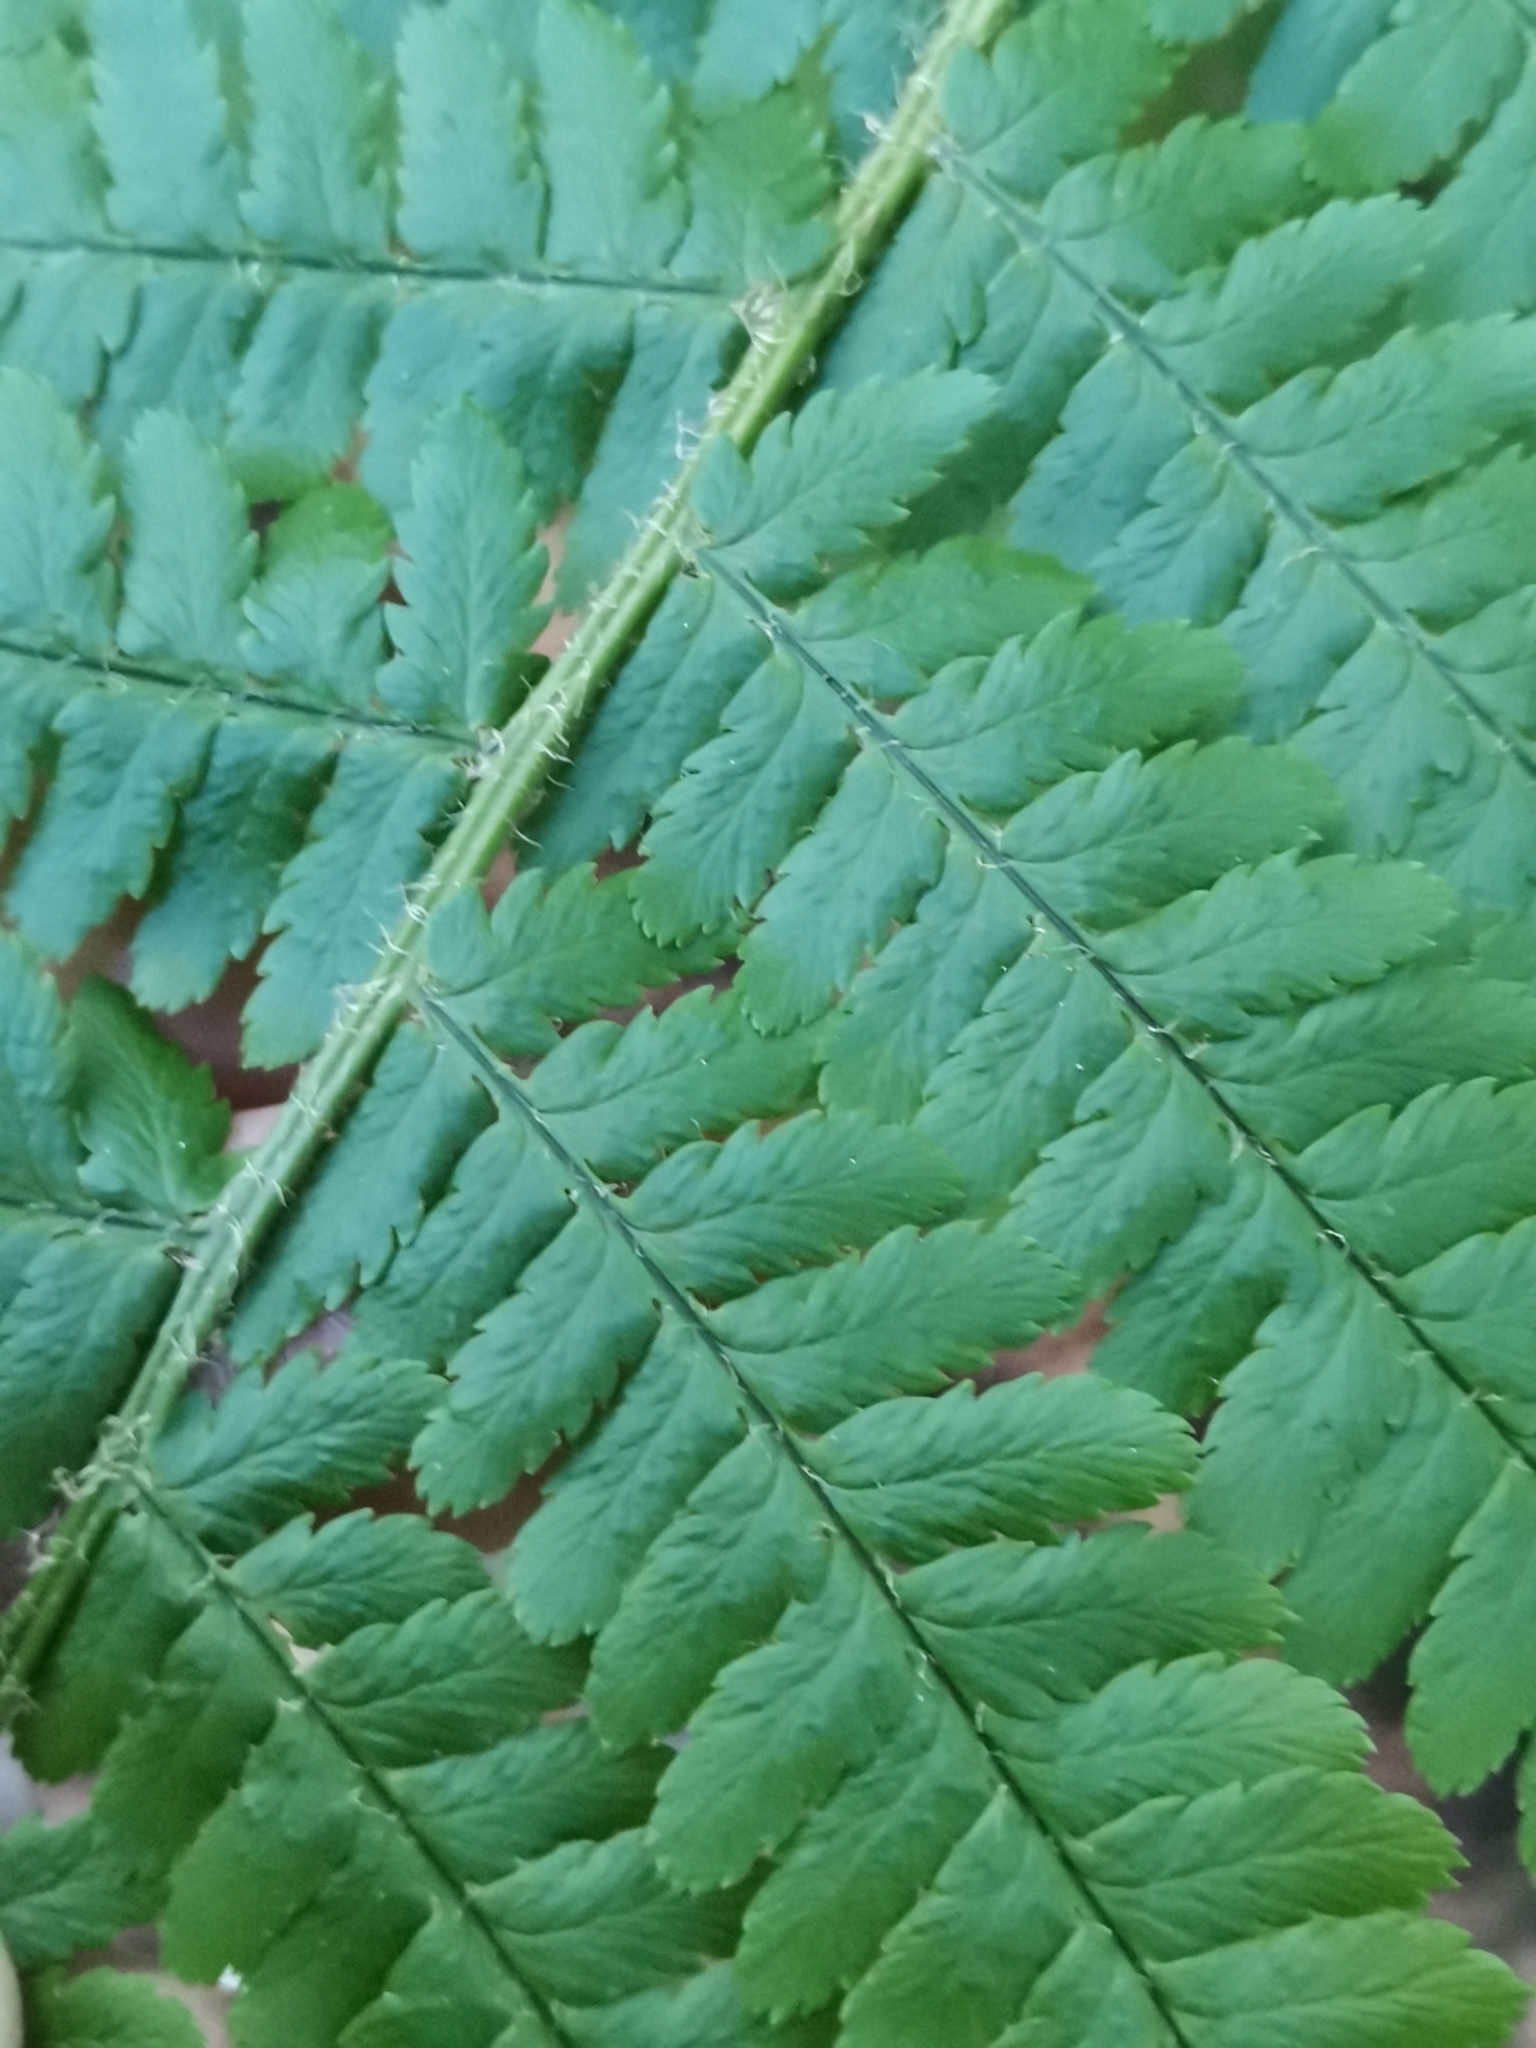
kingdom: Plantae
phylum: Tracheophyta
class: Polypodiopsida
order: Polypodiales
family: Dryopteridaceae
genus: Dryopteris
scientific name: Dryopteris filix-mas
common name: Male fern
